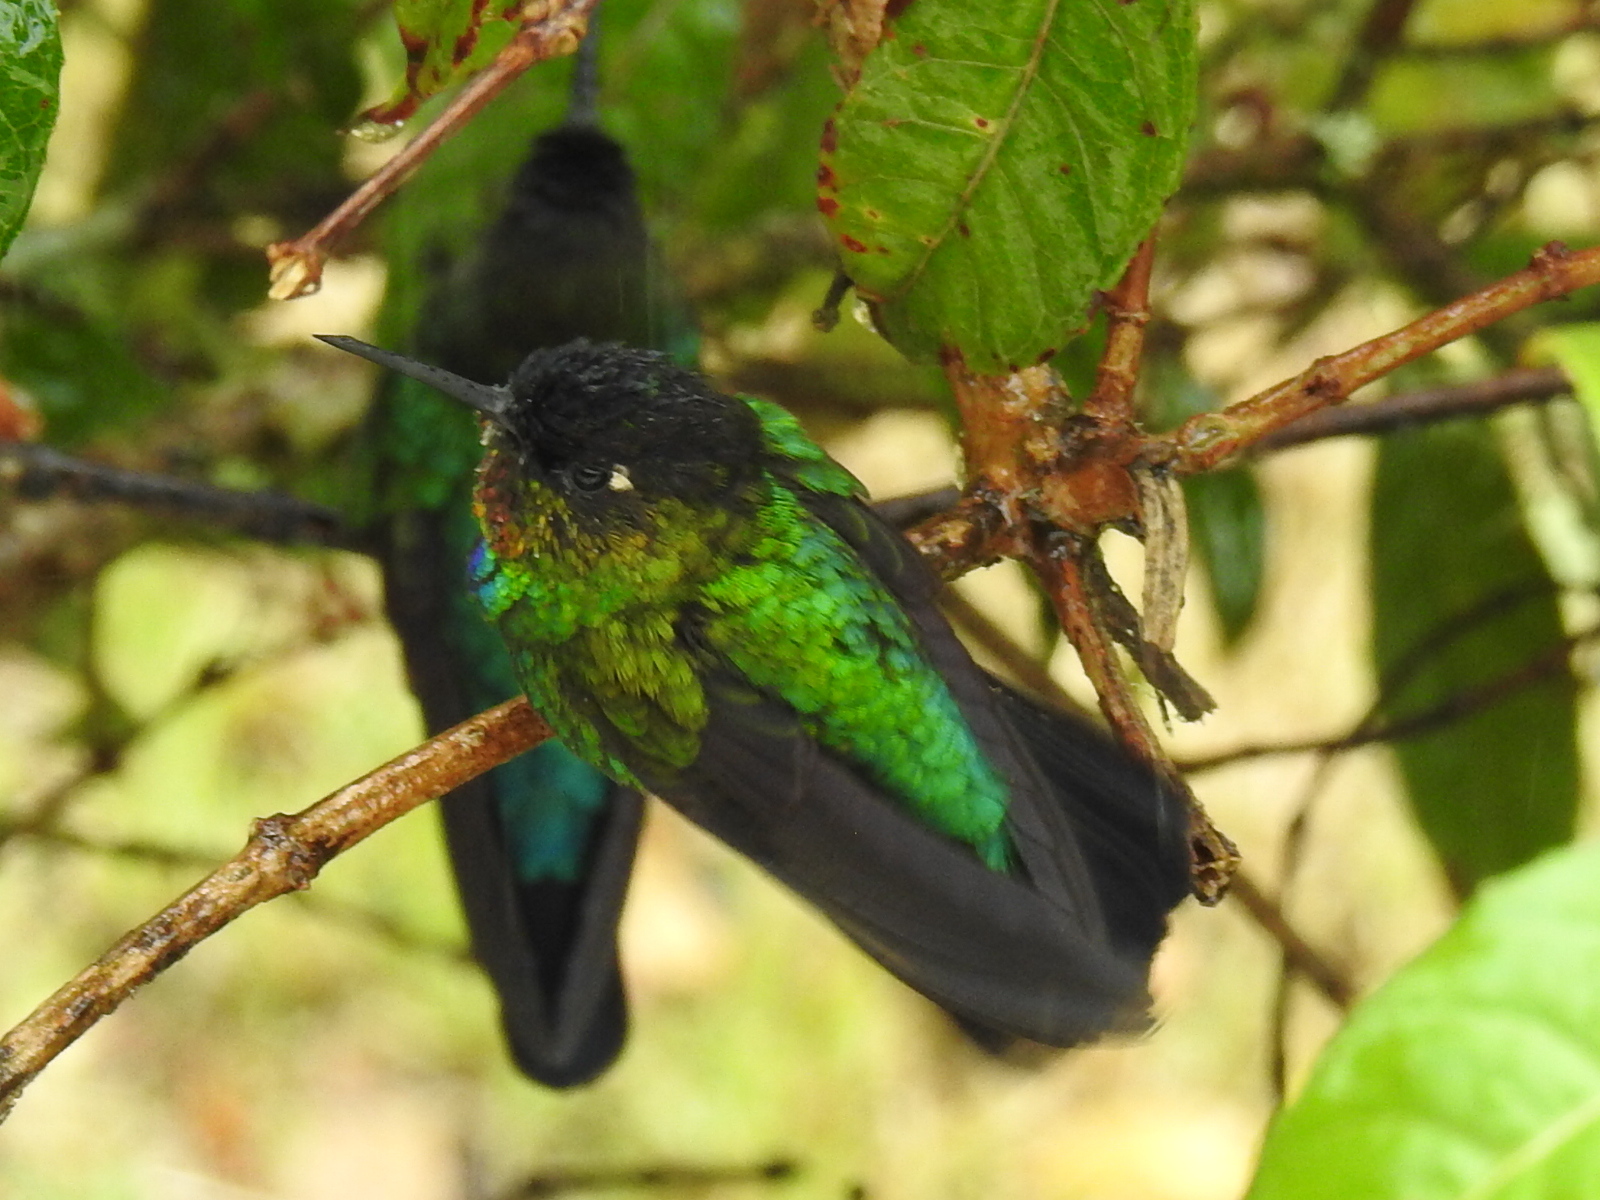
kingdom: Animalia
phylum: Chordata
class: Aves
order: Apodiformes
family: Trochilidae
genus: Panterpe
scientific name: Panterpe insignis
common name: Fiery-throated hummingbird
